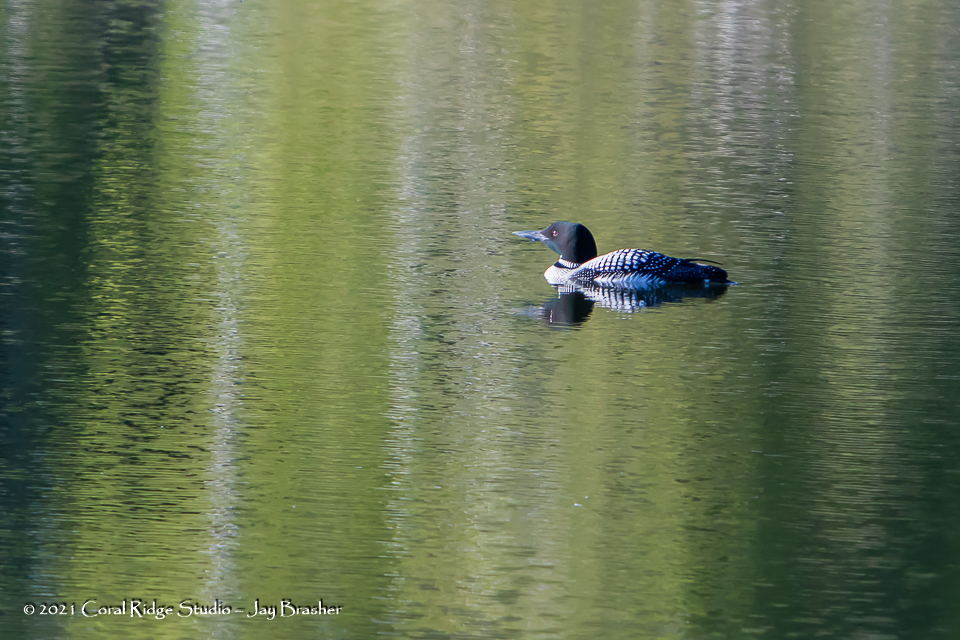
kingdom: Animalia
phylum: Chordata
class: Aves
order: Gaviiformes
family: Gaviidae
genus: Gavia
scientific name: Gavia immer
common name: Common loon
